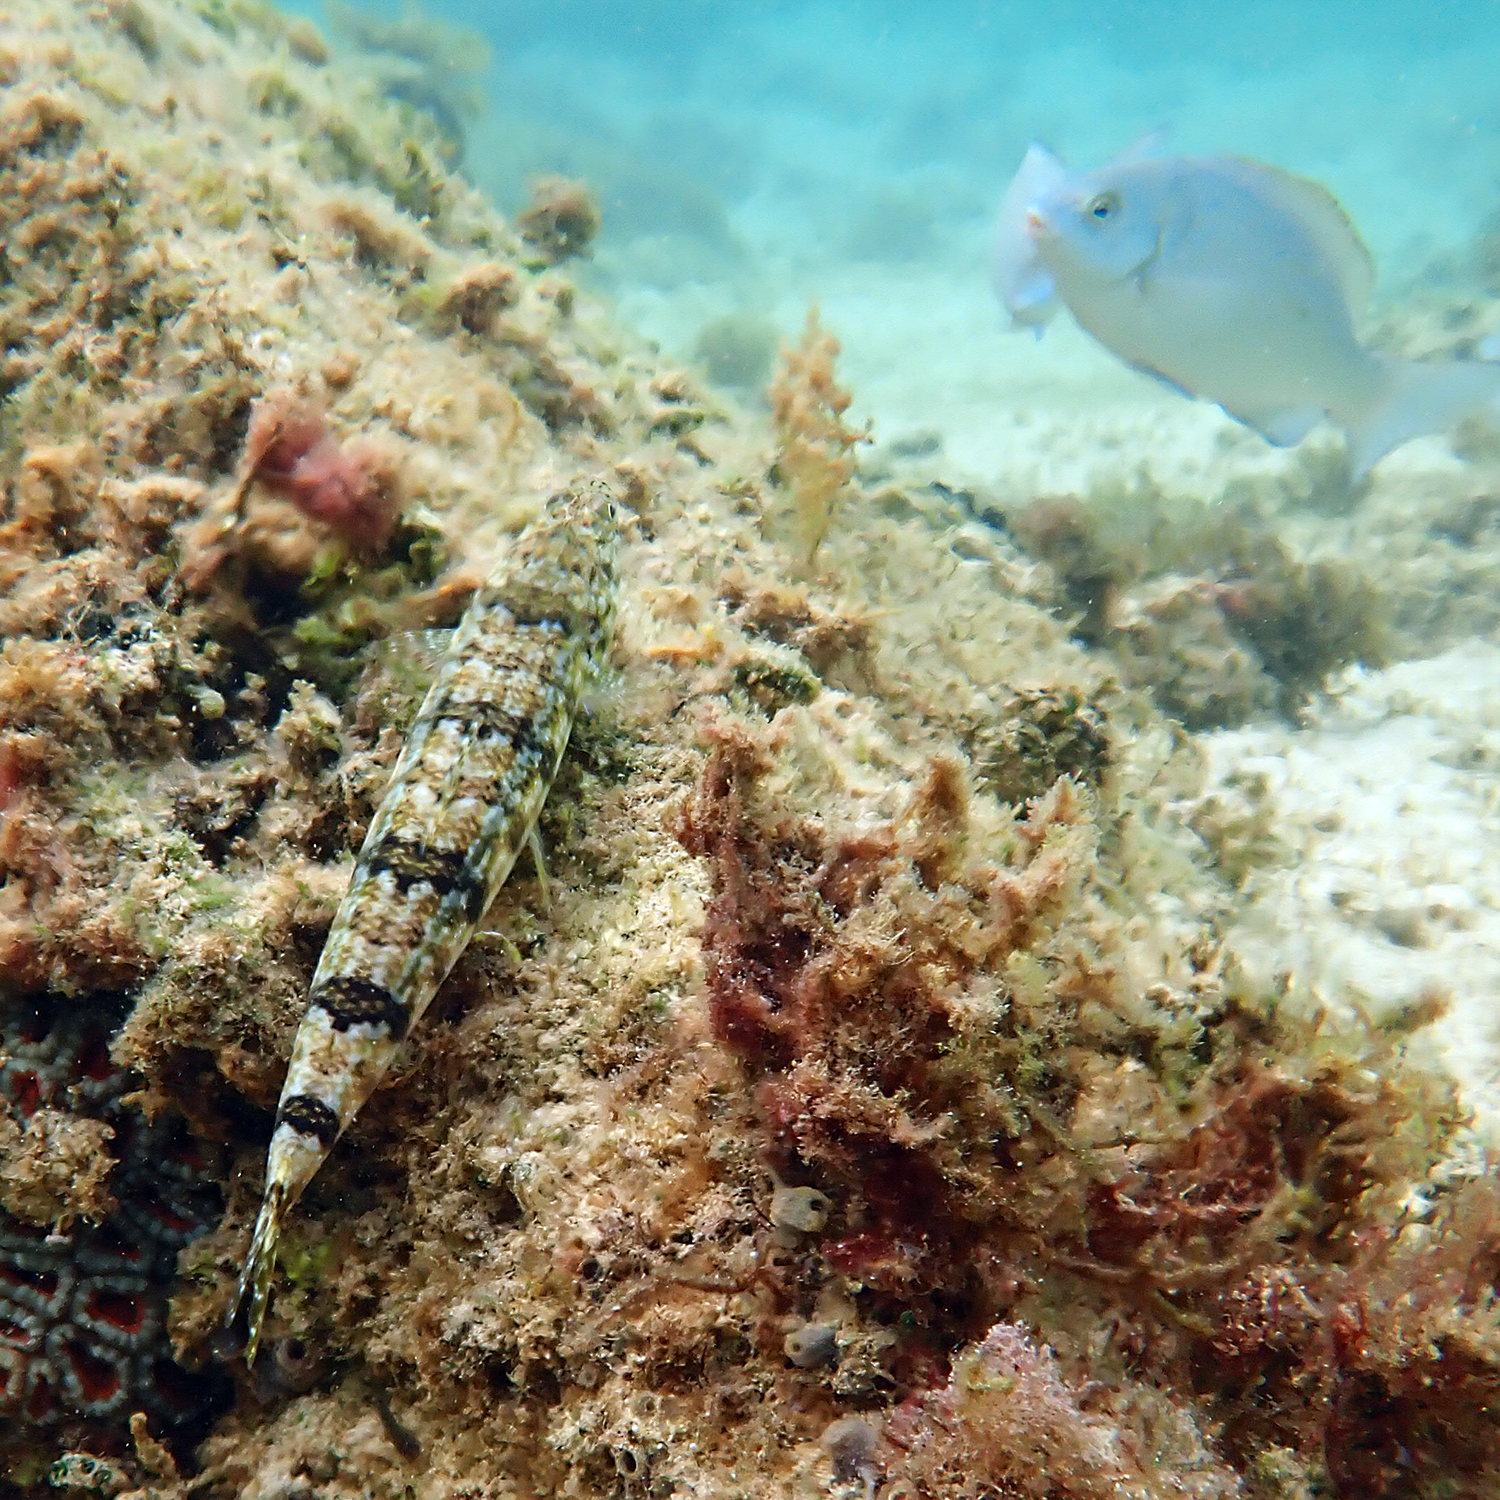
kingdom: Animalia
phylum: Chordata
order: Aulopiformes
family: Synodontidae
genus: Synodus
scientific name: Synodus dermatogenys
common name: Banded lizardfish
